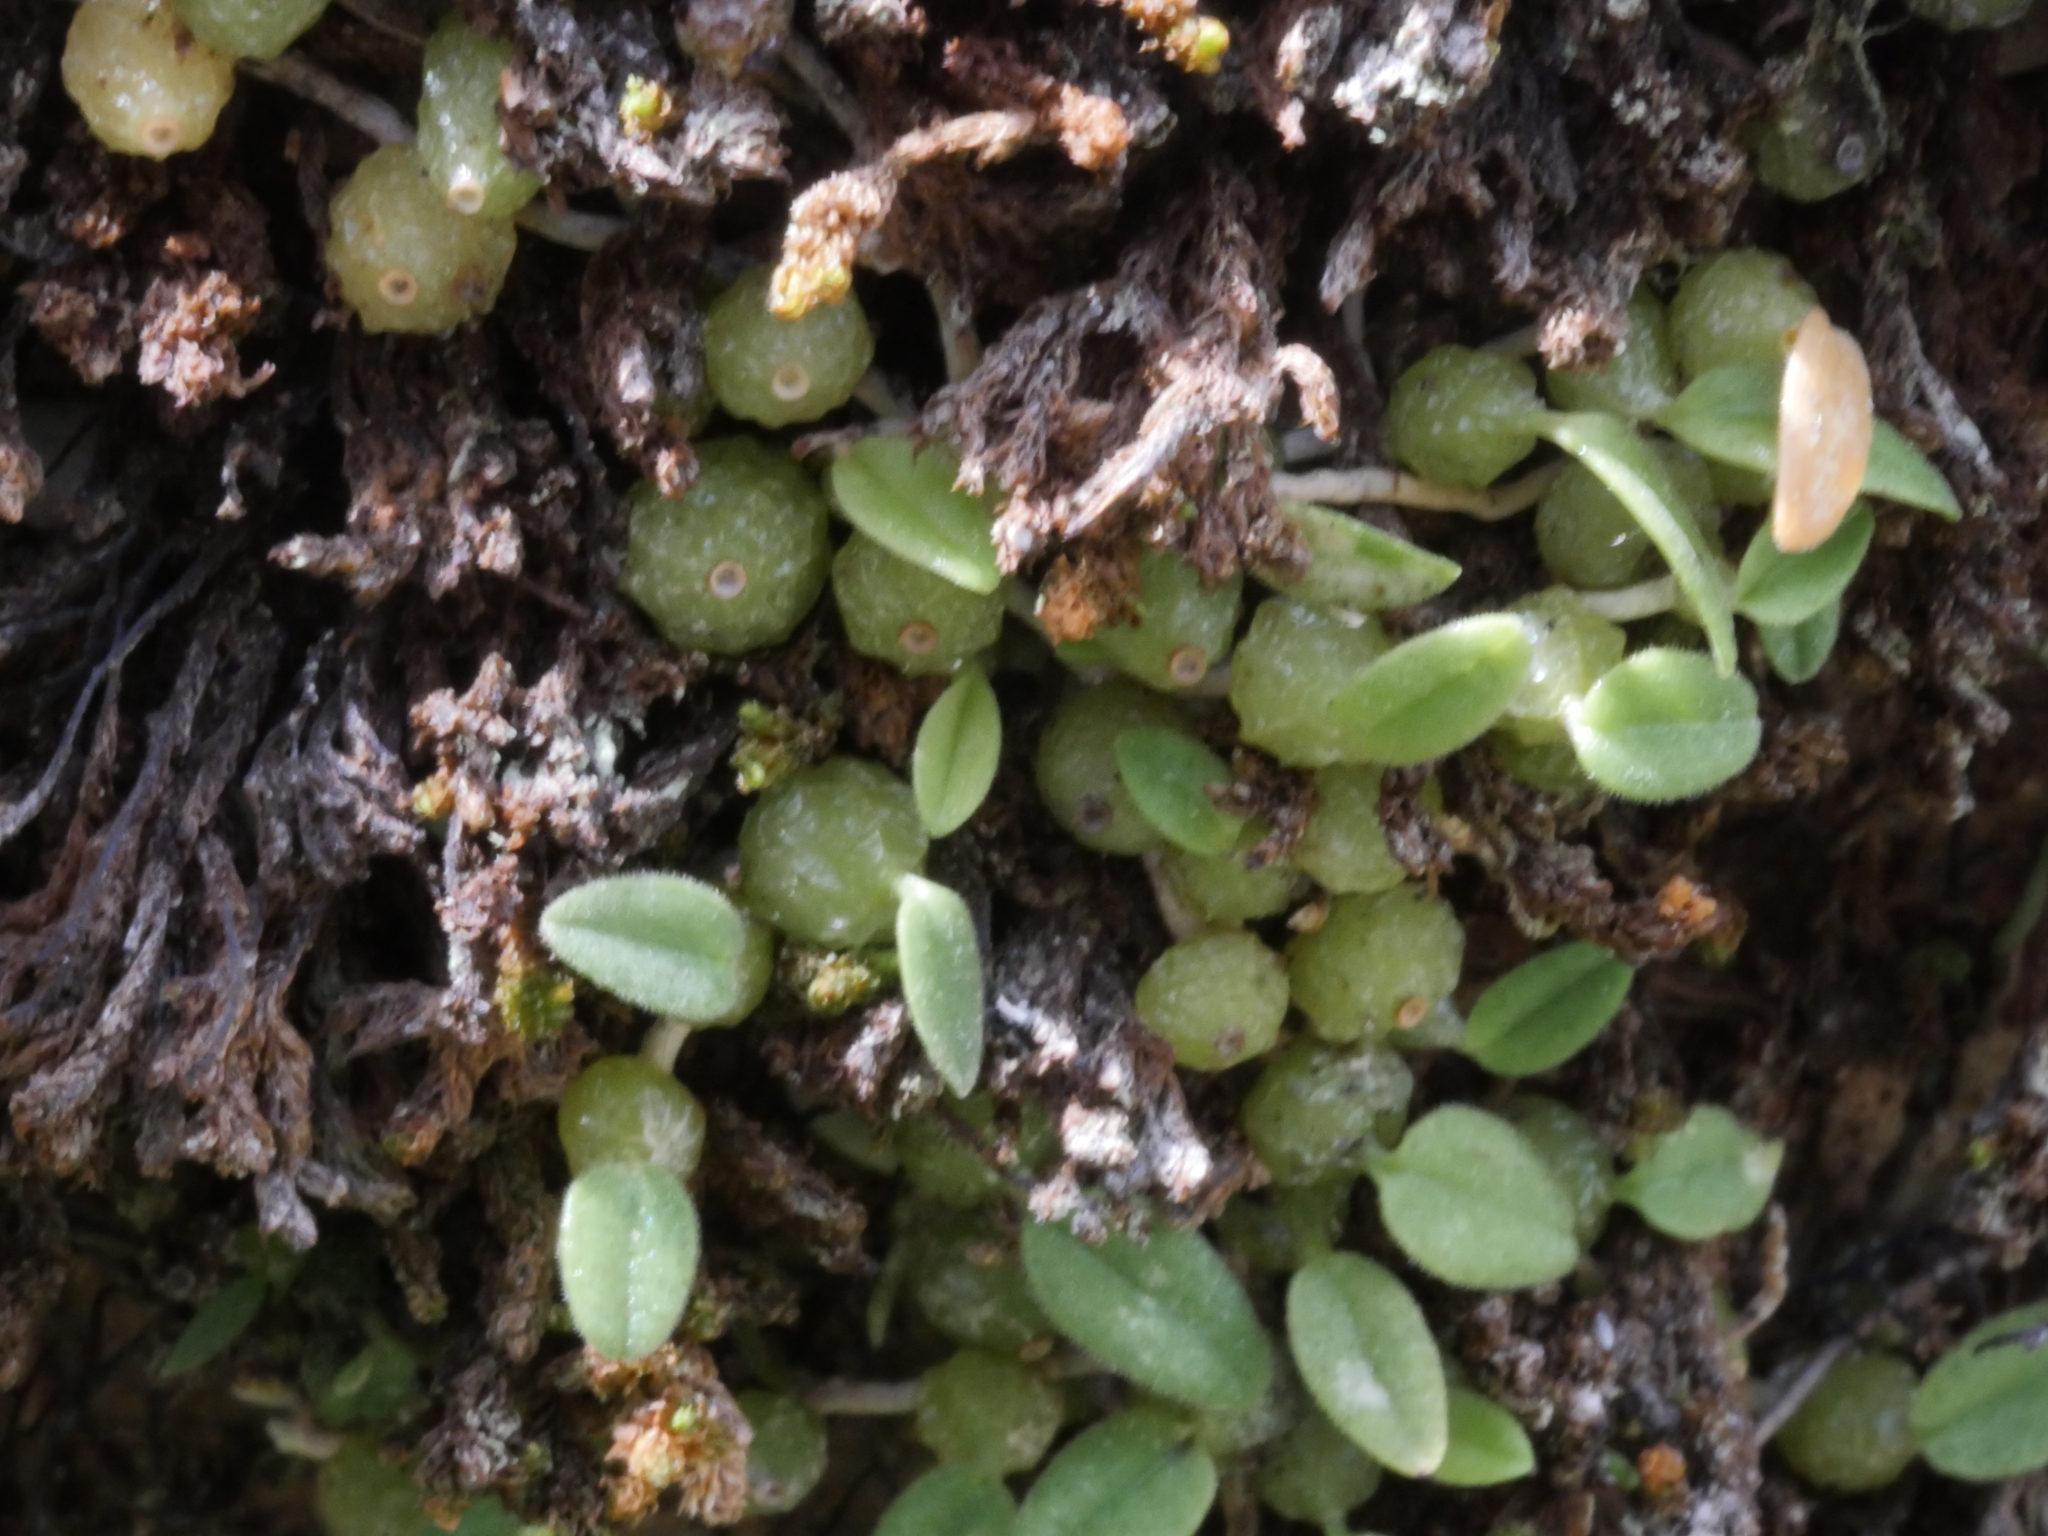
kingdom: Plantae
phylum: Tracheophyta
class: Liliopsida
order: Asparagales
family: Orchidaceae
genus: Bulbophyllum
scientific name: Bulbophyllum pygmaeum
